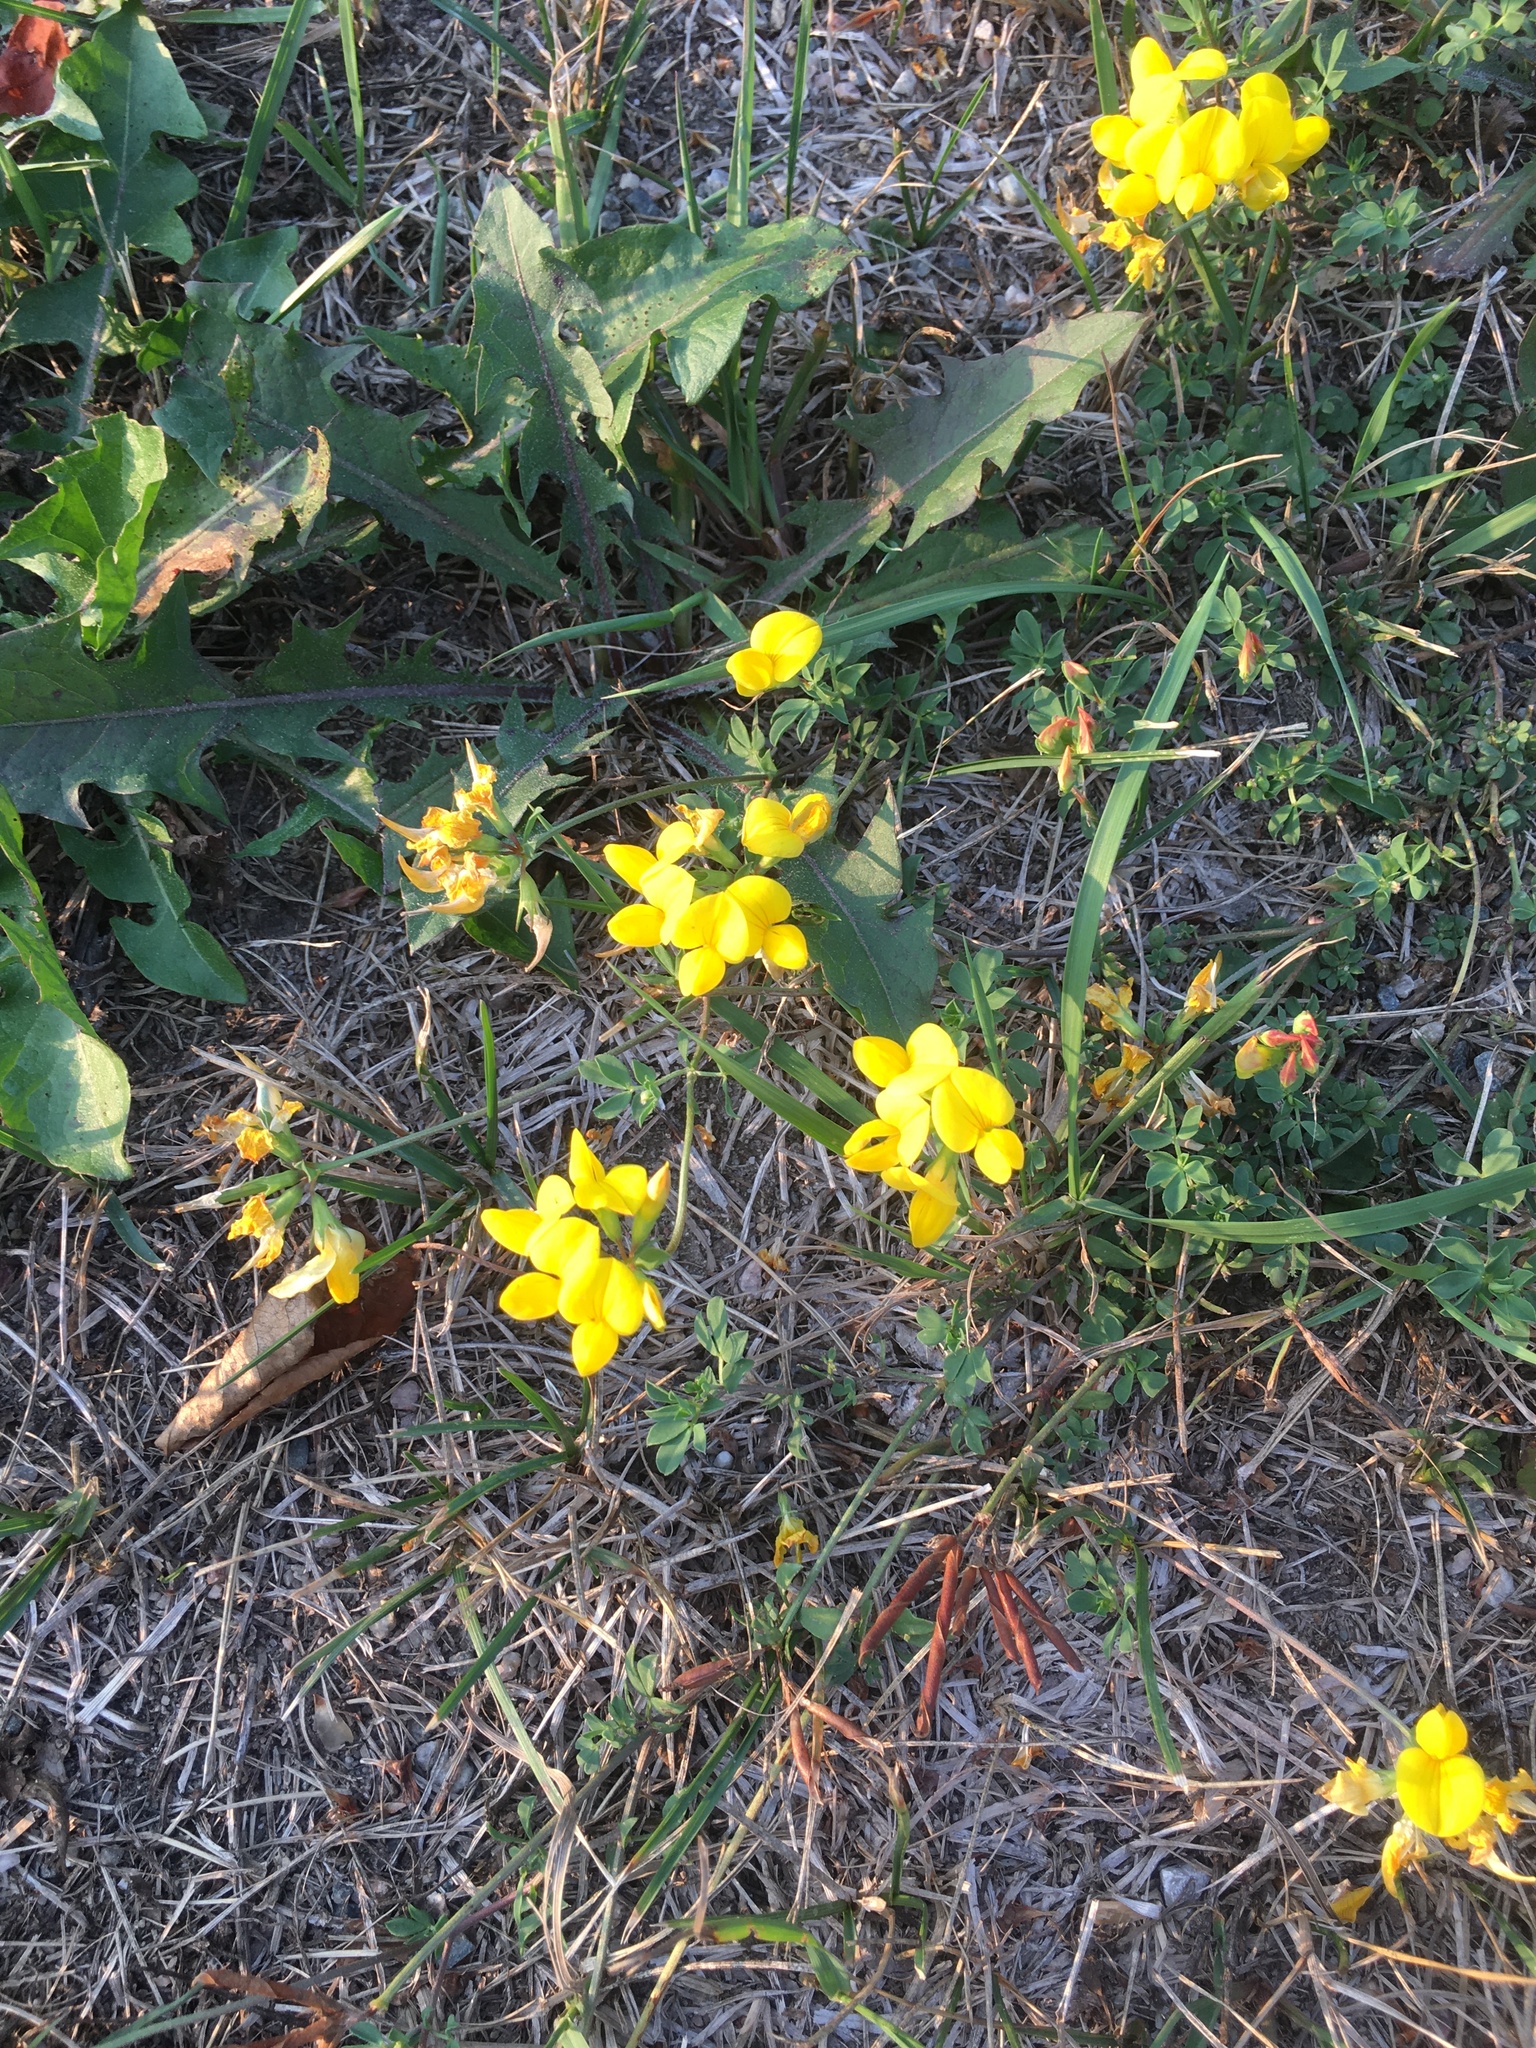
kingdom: Plantae
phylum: Tracheophyta
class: Magnoliopsida
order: Fabales
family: Fabaceae
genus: Lotus
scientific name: Lotus corniculatus
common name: Common bird's-foot-trefoil
